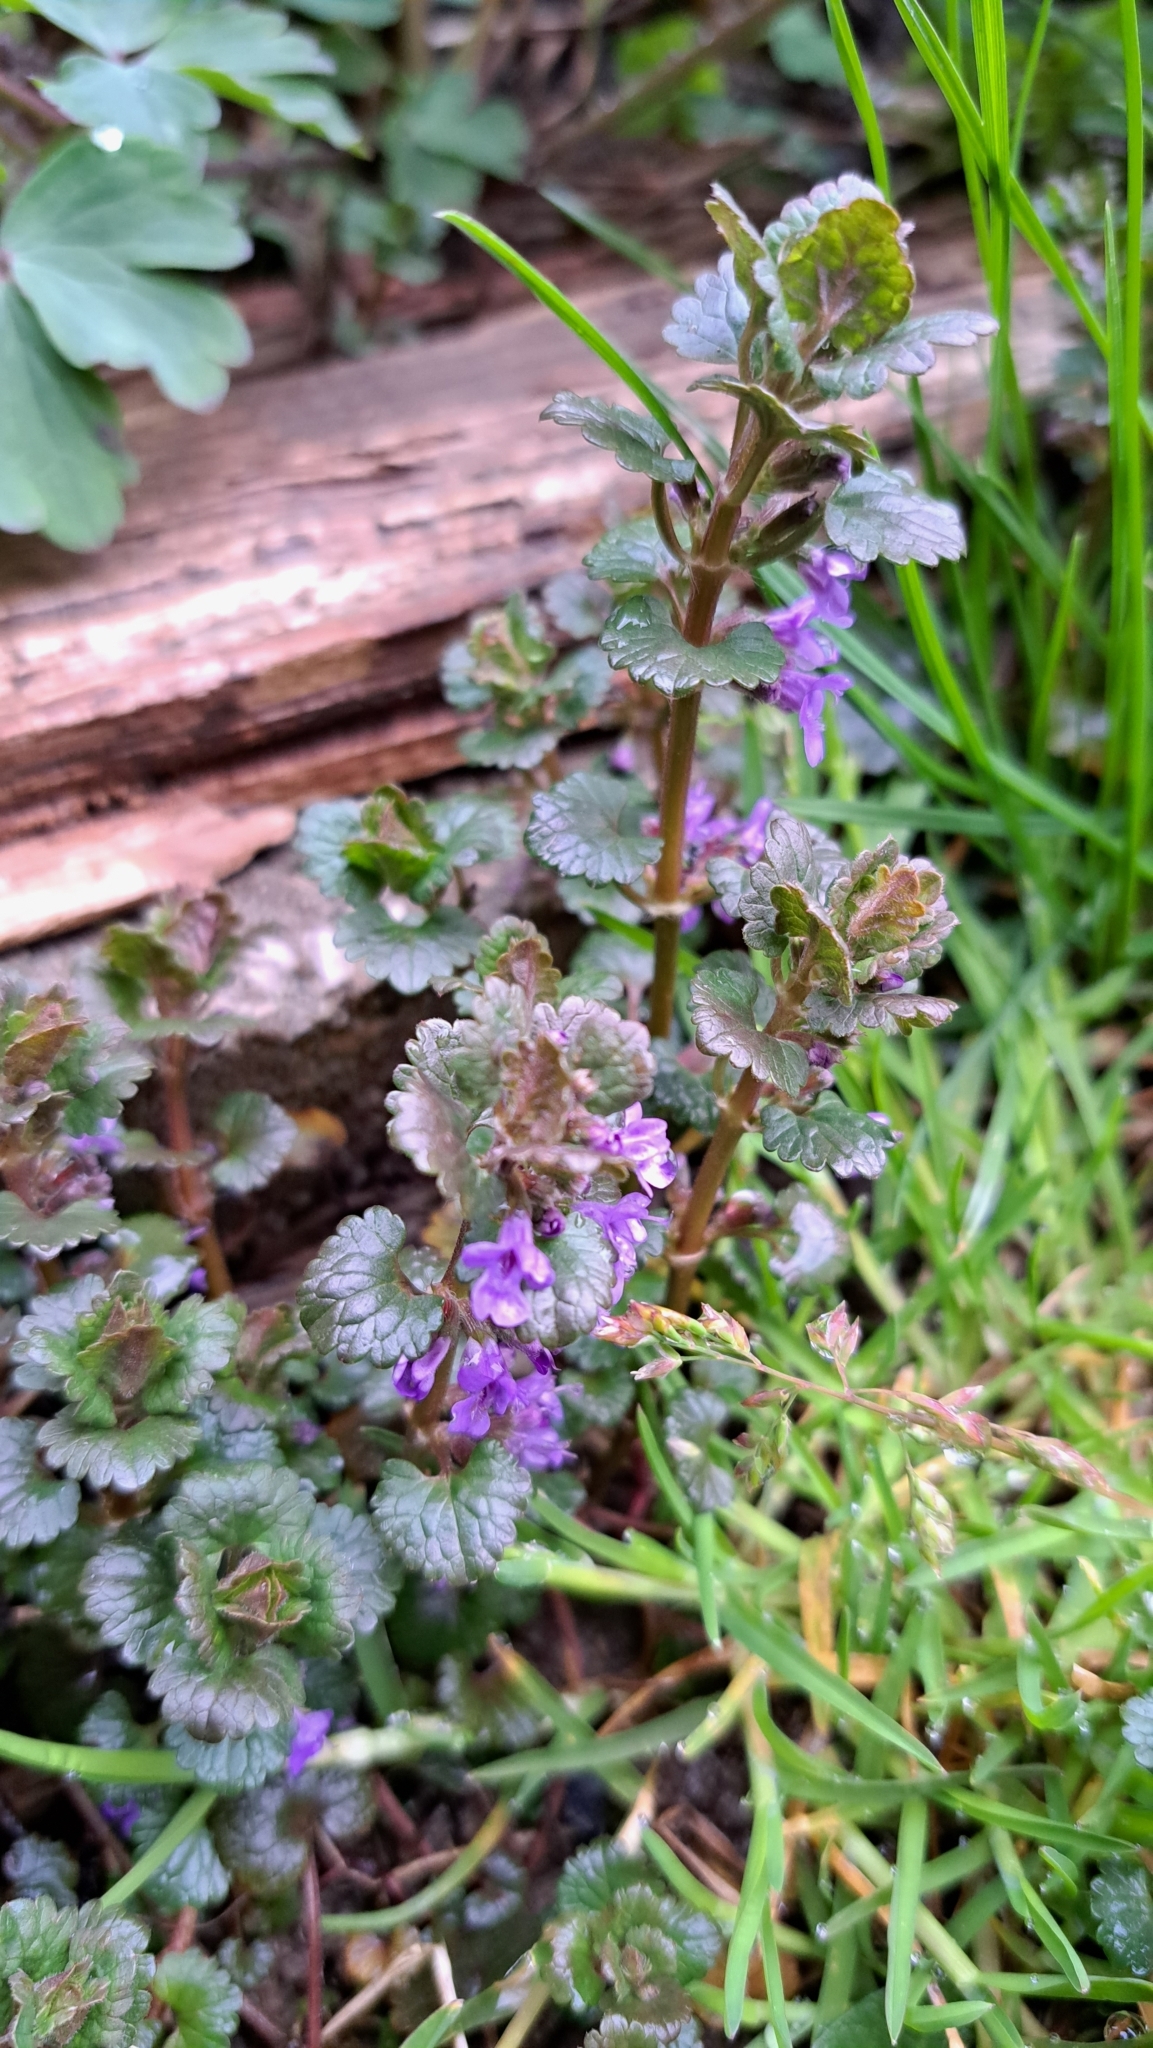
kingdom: Plantae
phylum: Tracheophyta
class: Magnoliopsida
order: Lamiales
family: Lamiaceae
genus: Glechoma
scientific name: Glechoma hederacea
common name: Ground ivy
